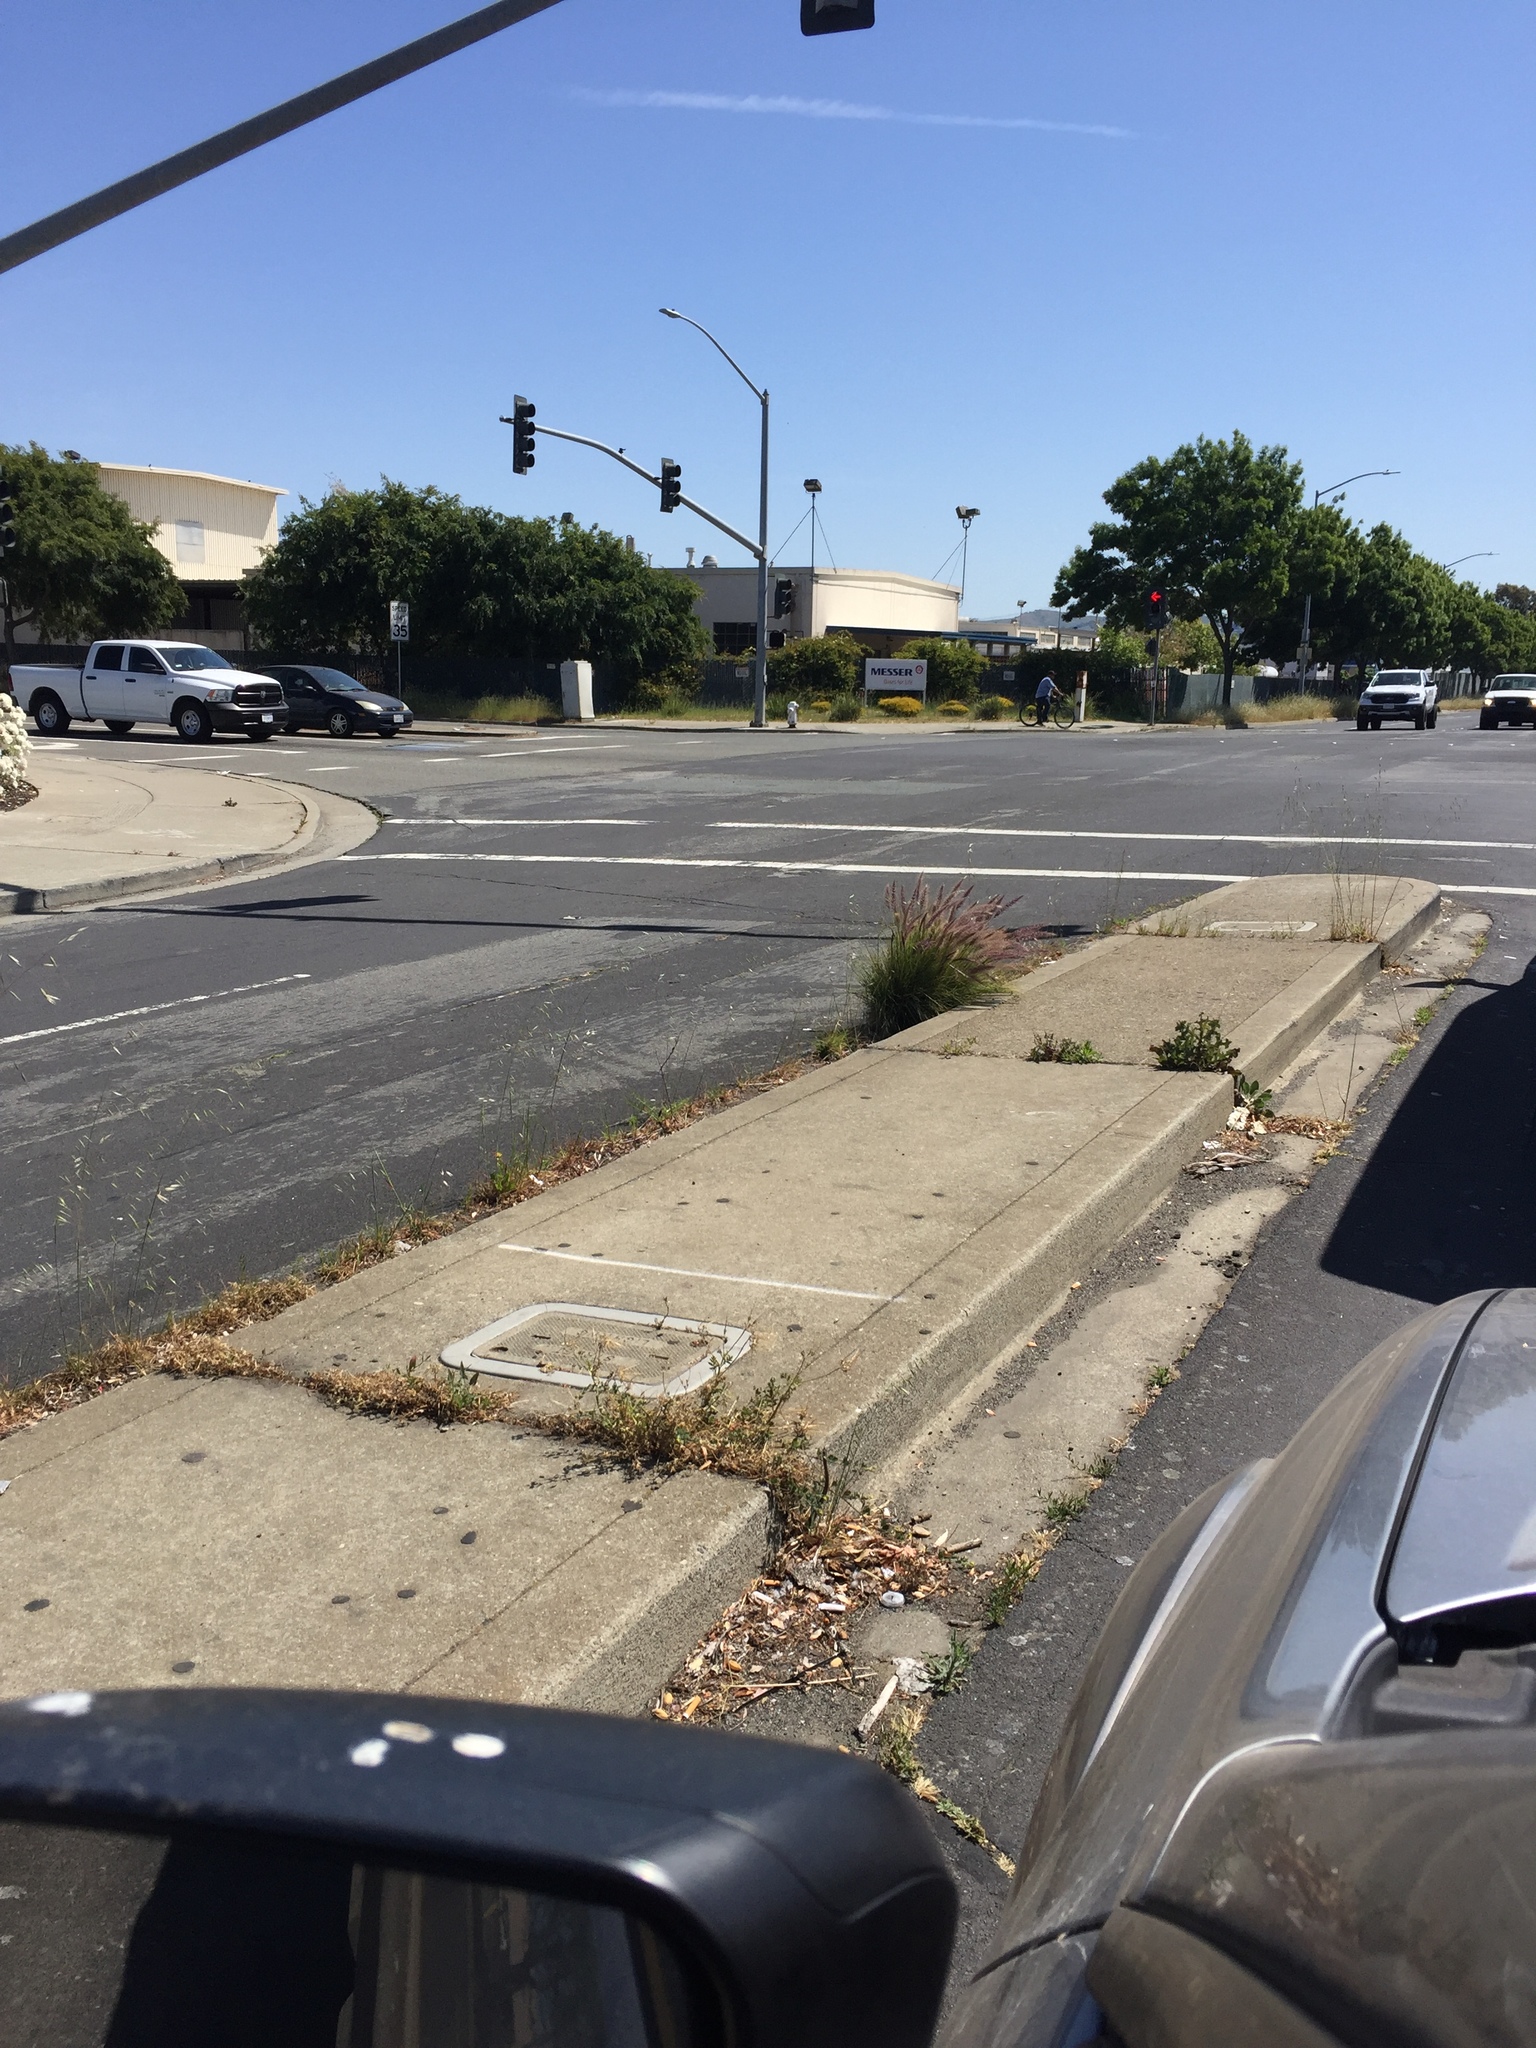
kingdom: Plantae
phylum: Tracheophyta
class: Liliopsida
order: Poales
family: Poaceae
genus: Cenchrus
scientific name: Cenchrus setaceus
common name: Crimson fountaingrass
